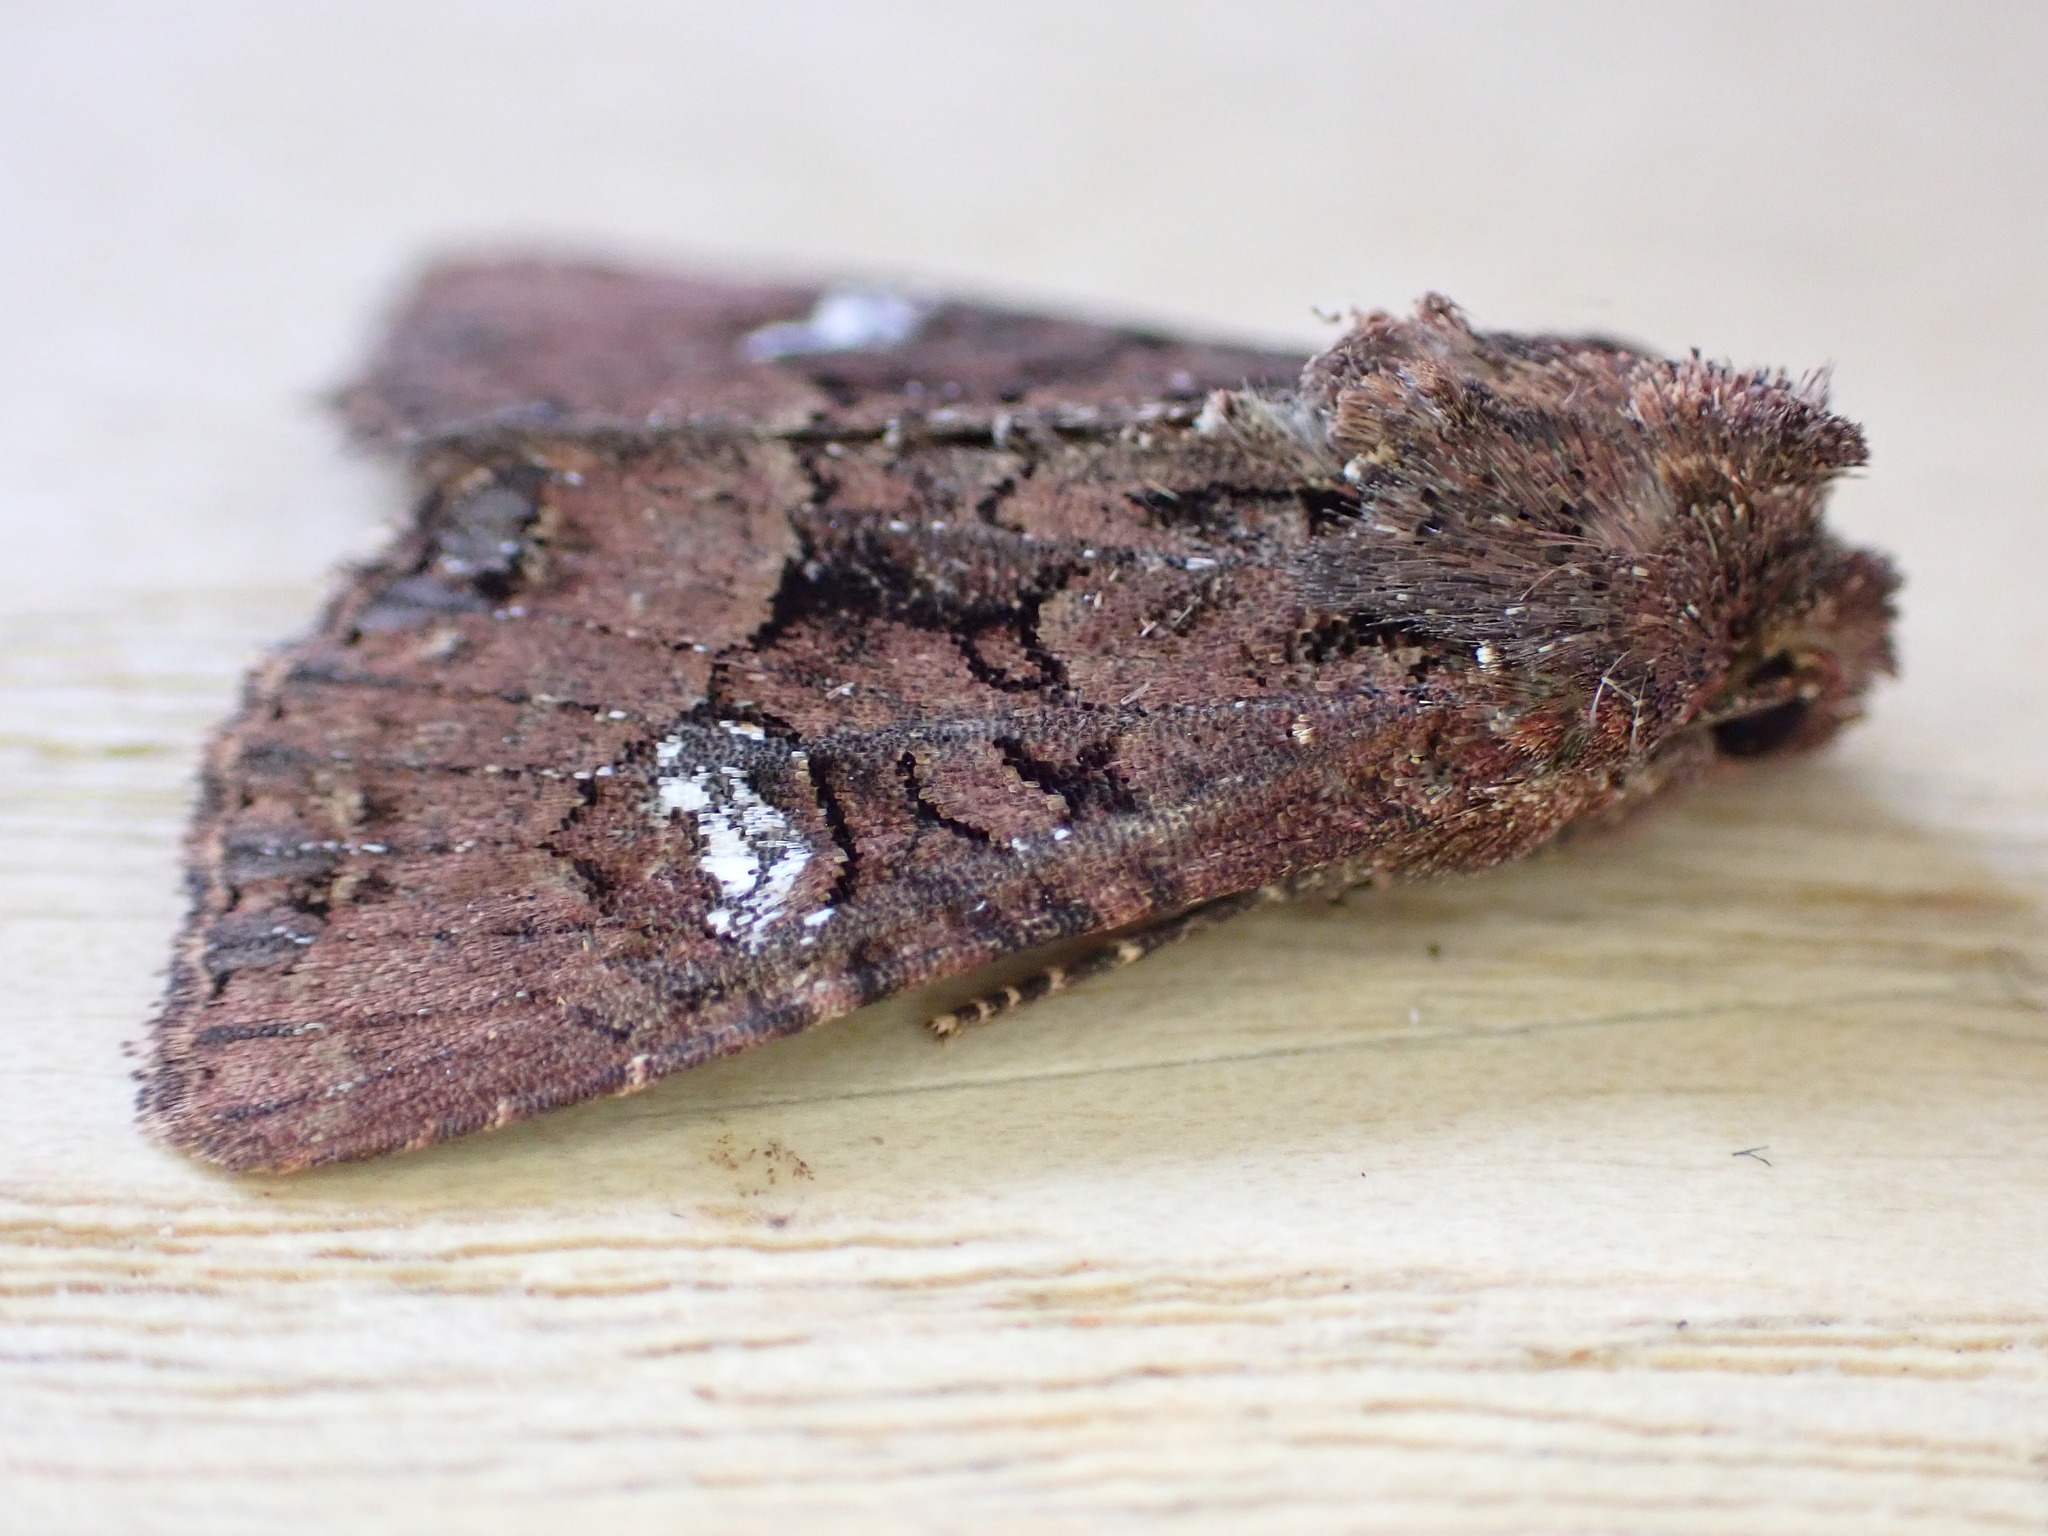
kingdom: Animalia
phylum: Arthropoda
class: Insecta
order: Lepidoptera
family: Noctuidae
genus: Mesapamea
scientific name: Mesapamea
